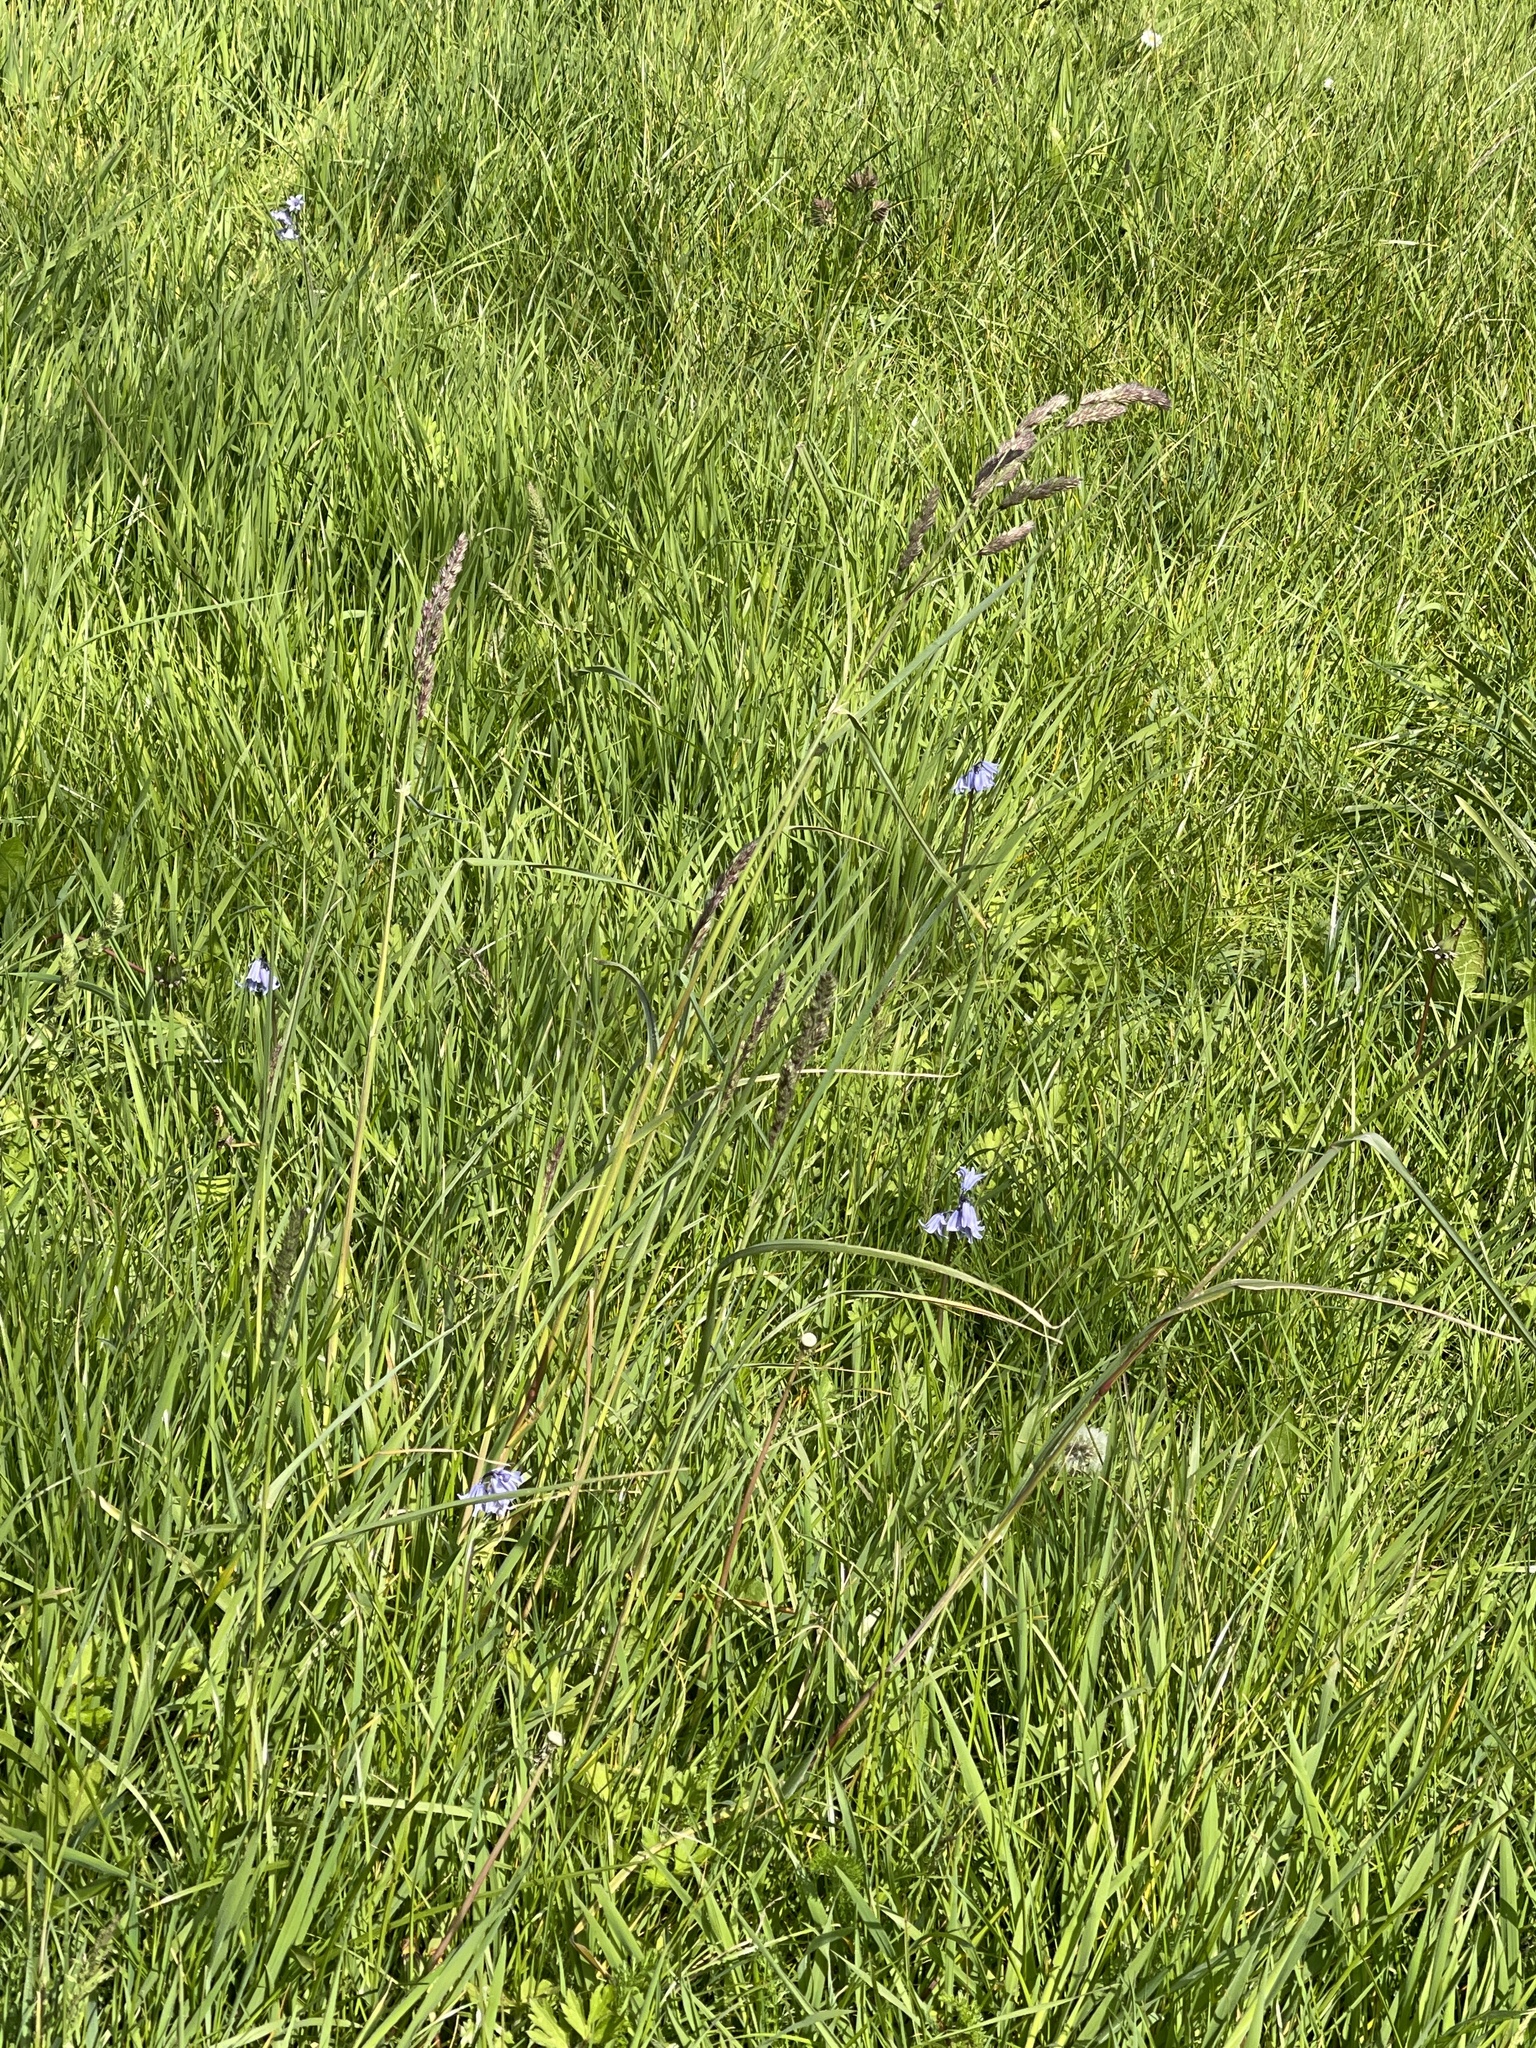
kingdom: Plantae
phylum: Tracheophyta
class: Liliopsida
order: Poales
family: Poaceae
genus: Dactylis
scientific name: Dactylis glomerata
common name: Orchardgrass
